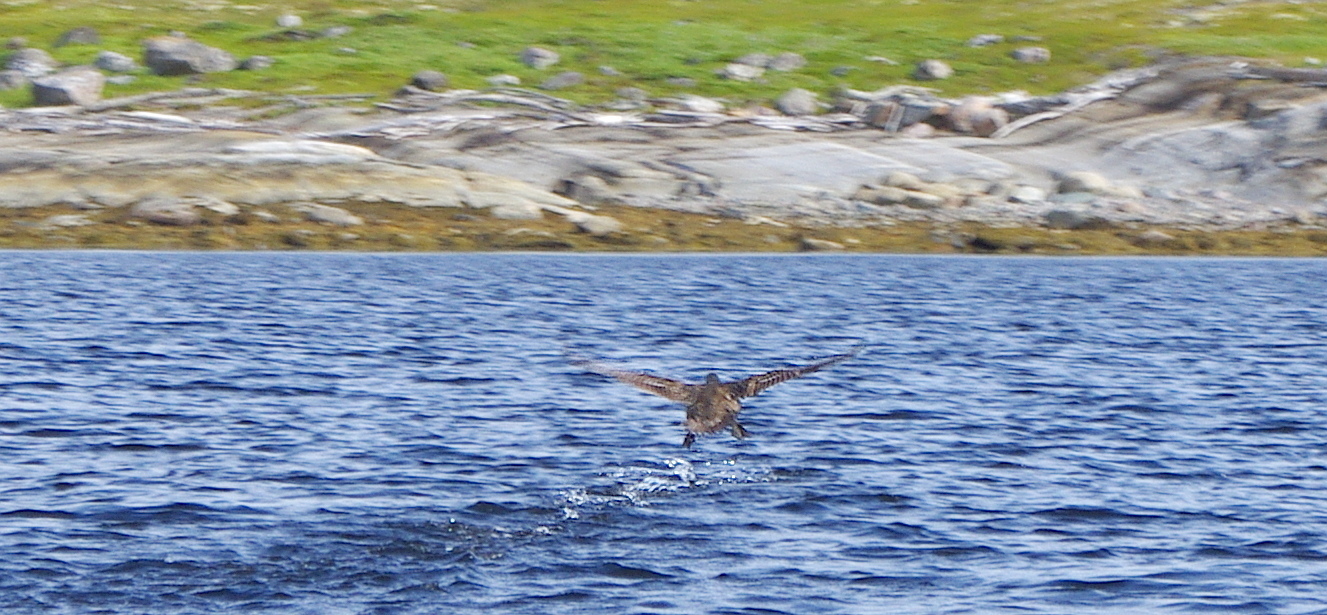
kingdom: Animalia
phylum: Chordata
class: Aves
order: Anseriformes
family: Anatidae
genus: Somateria
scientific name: Somateria mollissima
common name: Common eider
